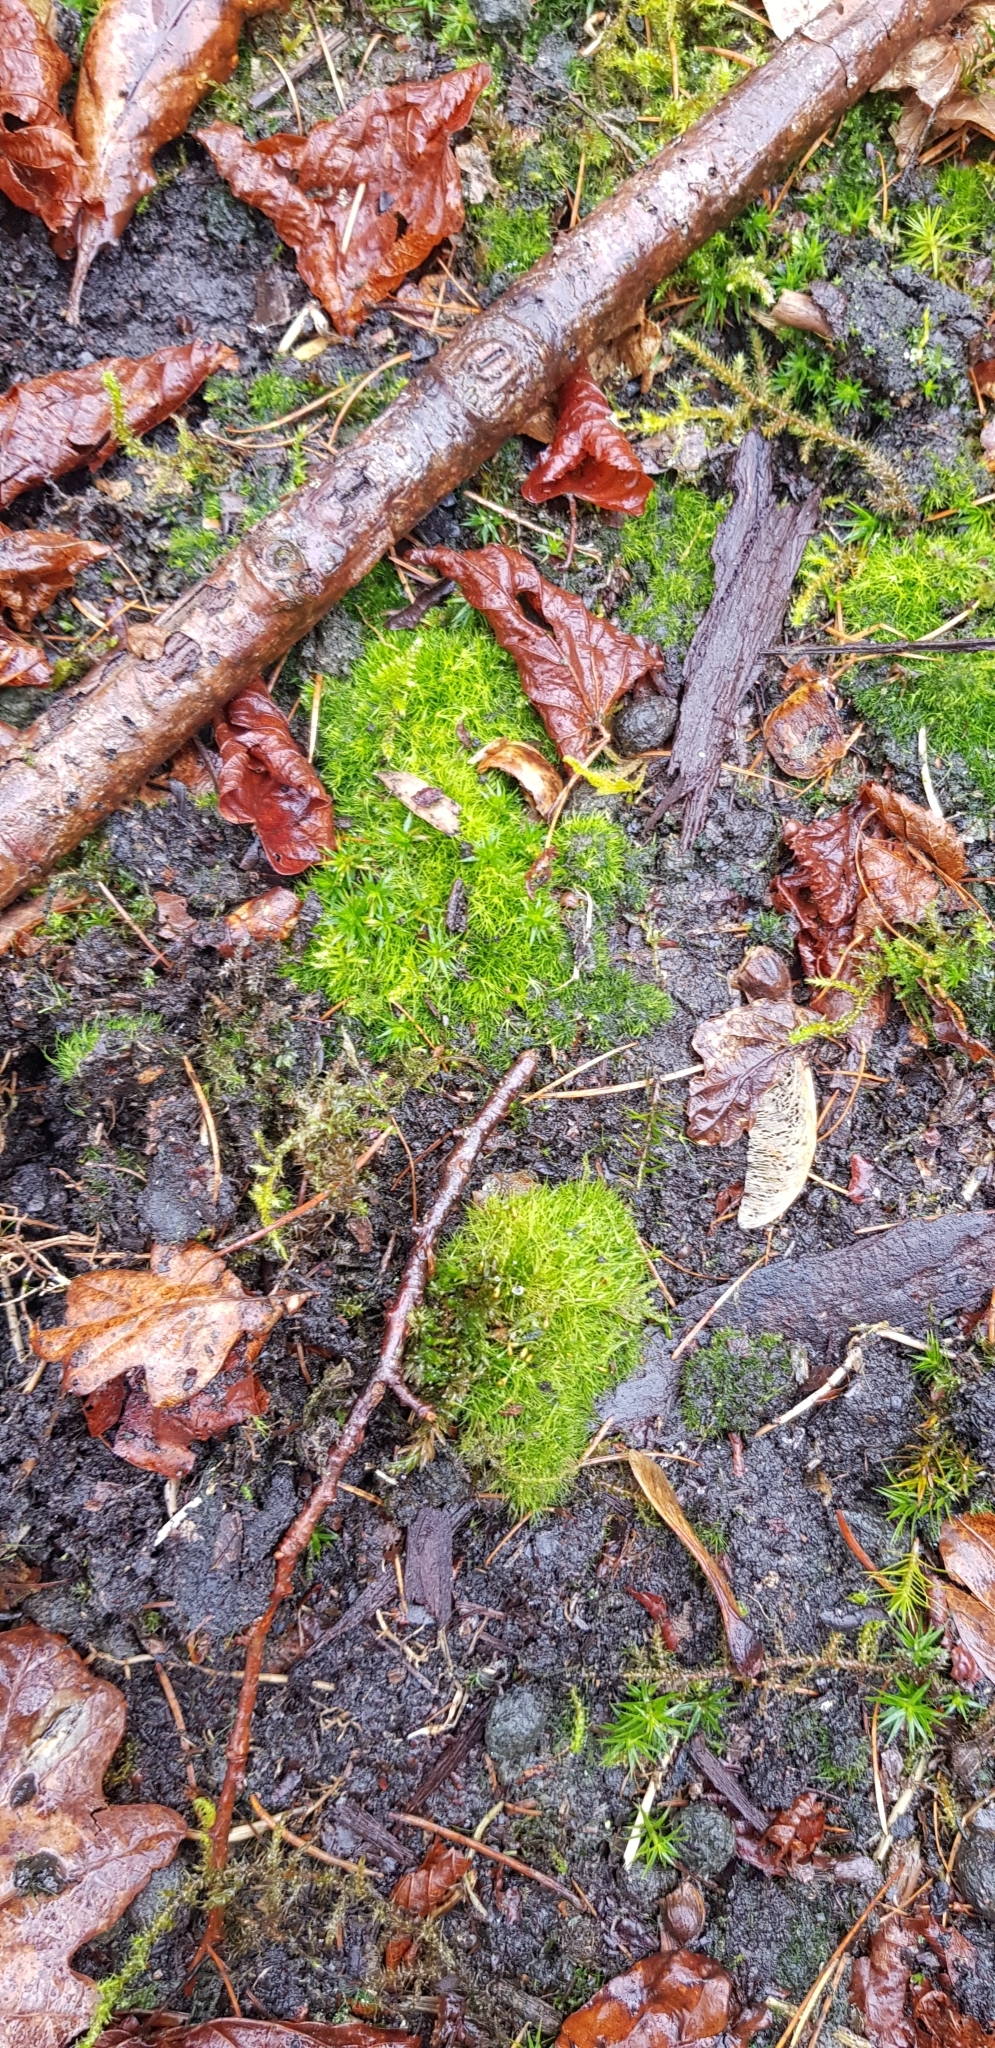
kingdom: Plantae
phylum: Bryophyta
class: Bryopsida
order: Dicranales
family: Leucobryaceae
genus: Campylopus
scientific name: Campylopus pyriformis
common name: Dwarf swan-neck moss
